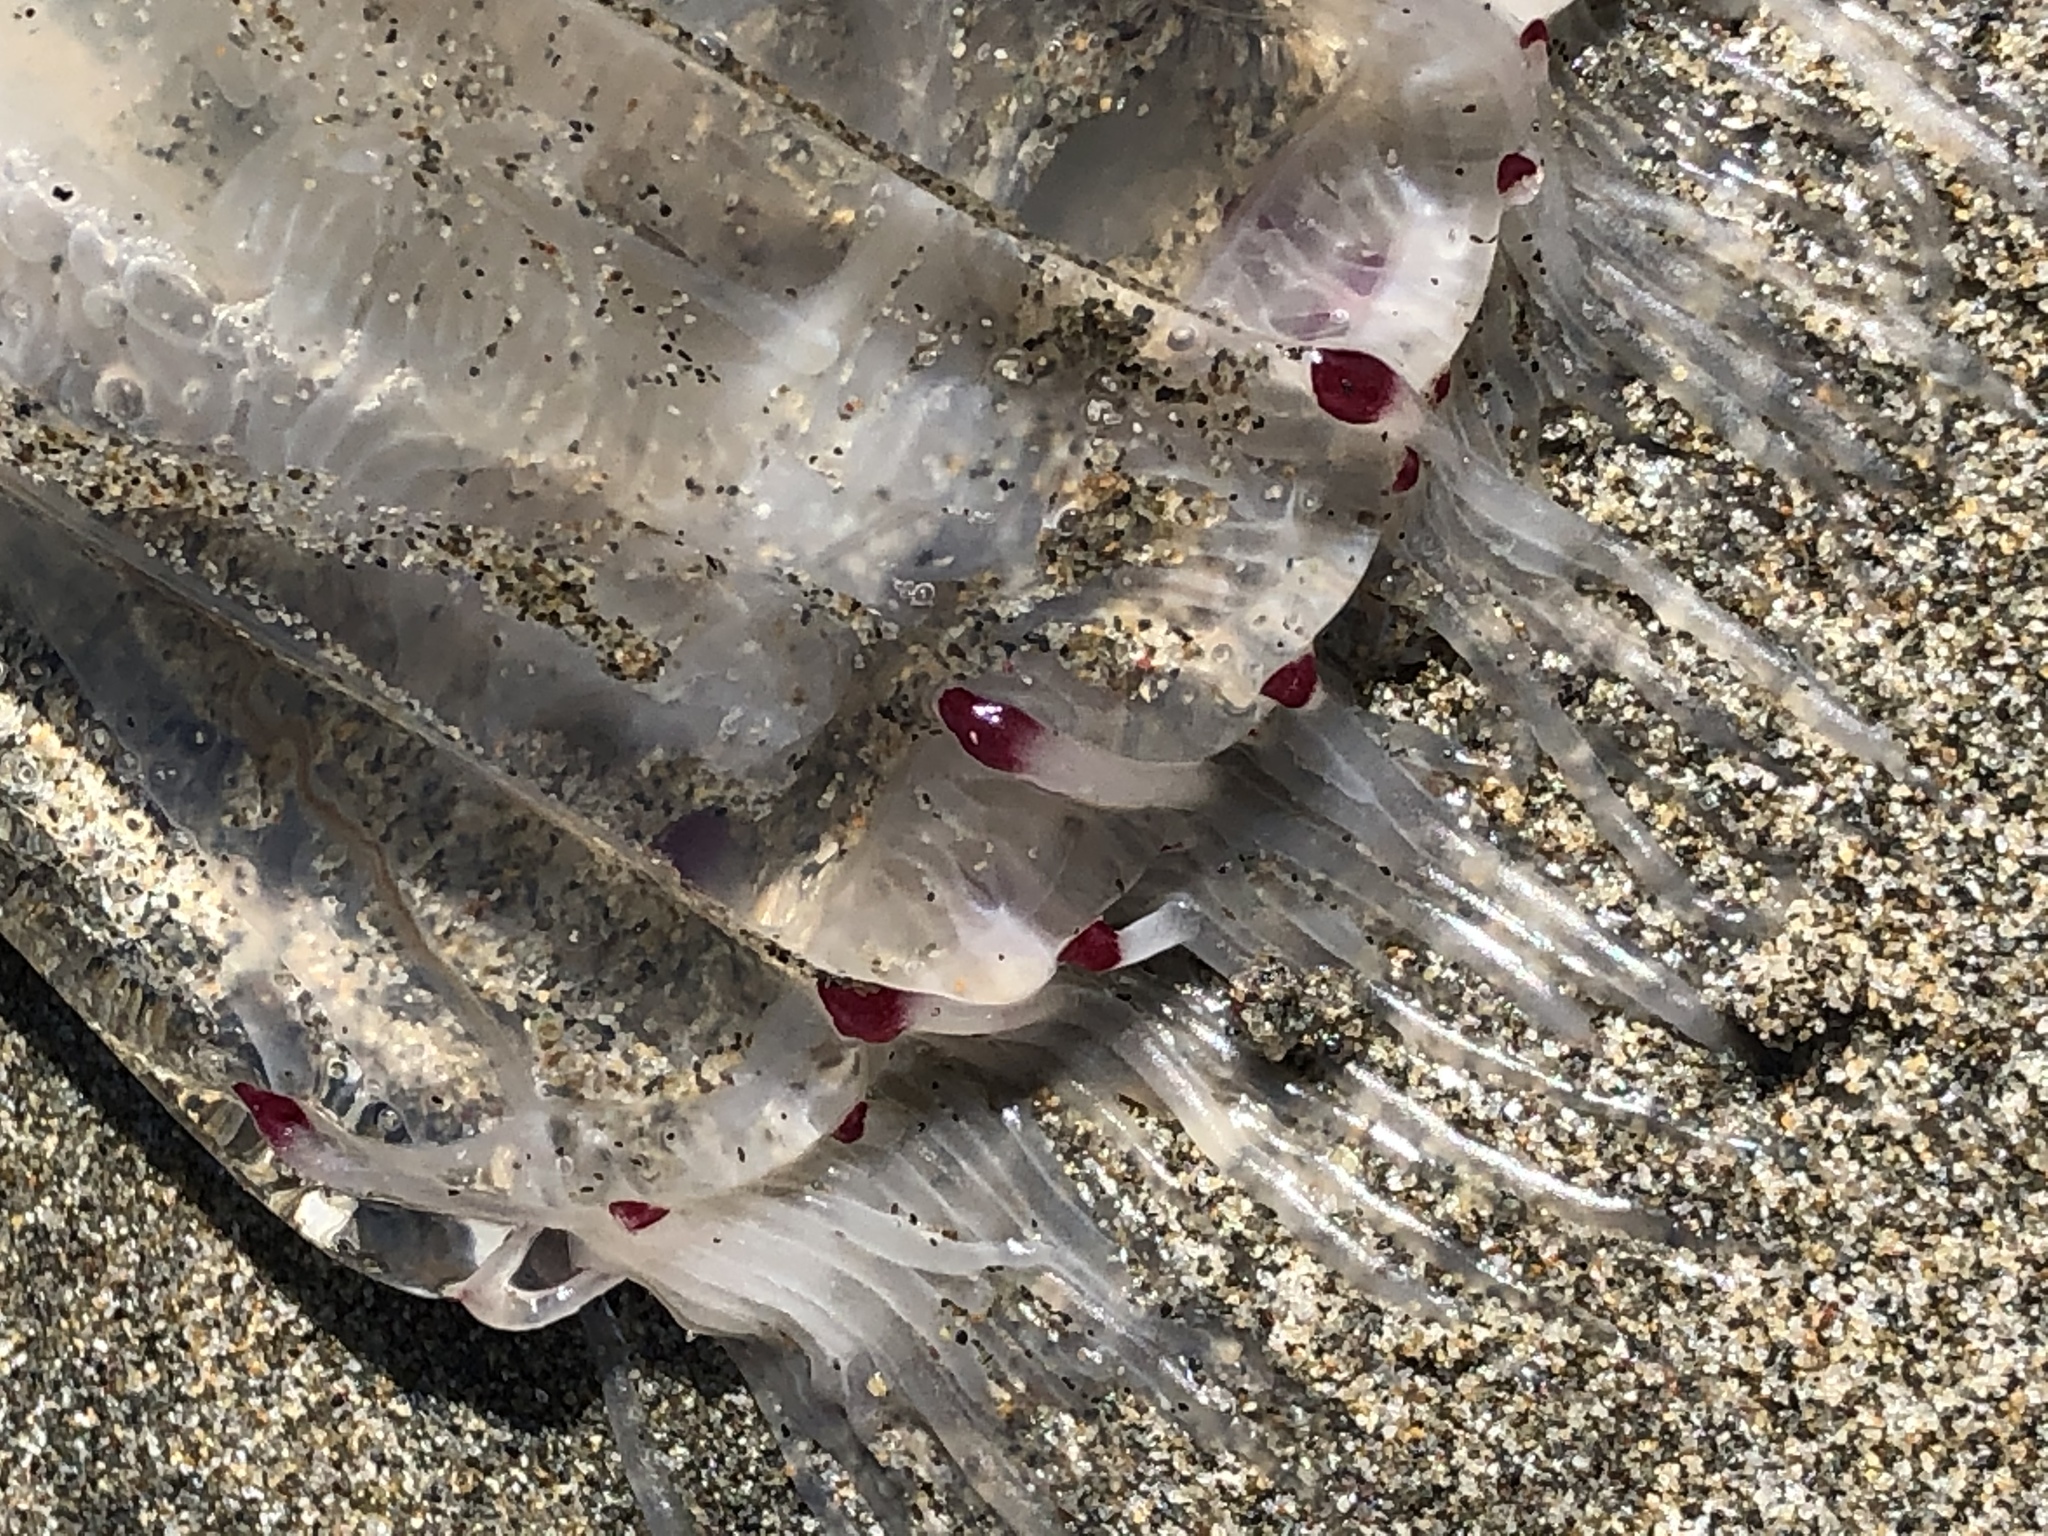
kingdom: Animalia
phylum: Cnidaria
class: Hydrozoa
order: Anthoathecata
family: Corynidae
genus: Scrippsia
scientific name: Scrippsia pacifica
